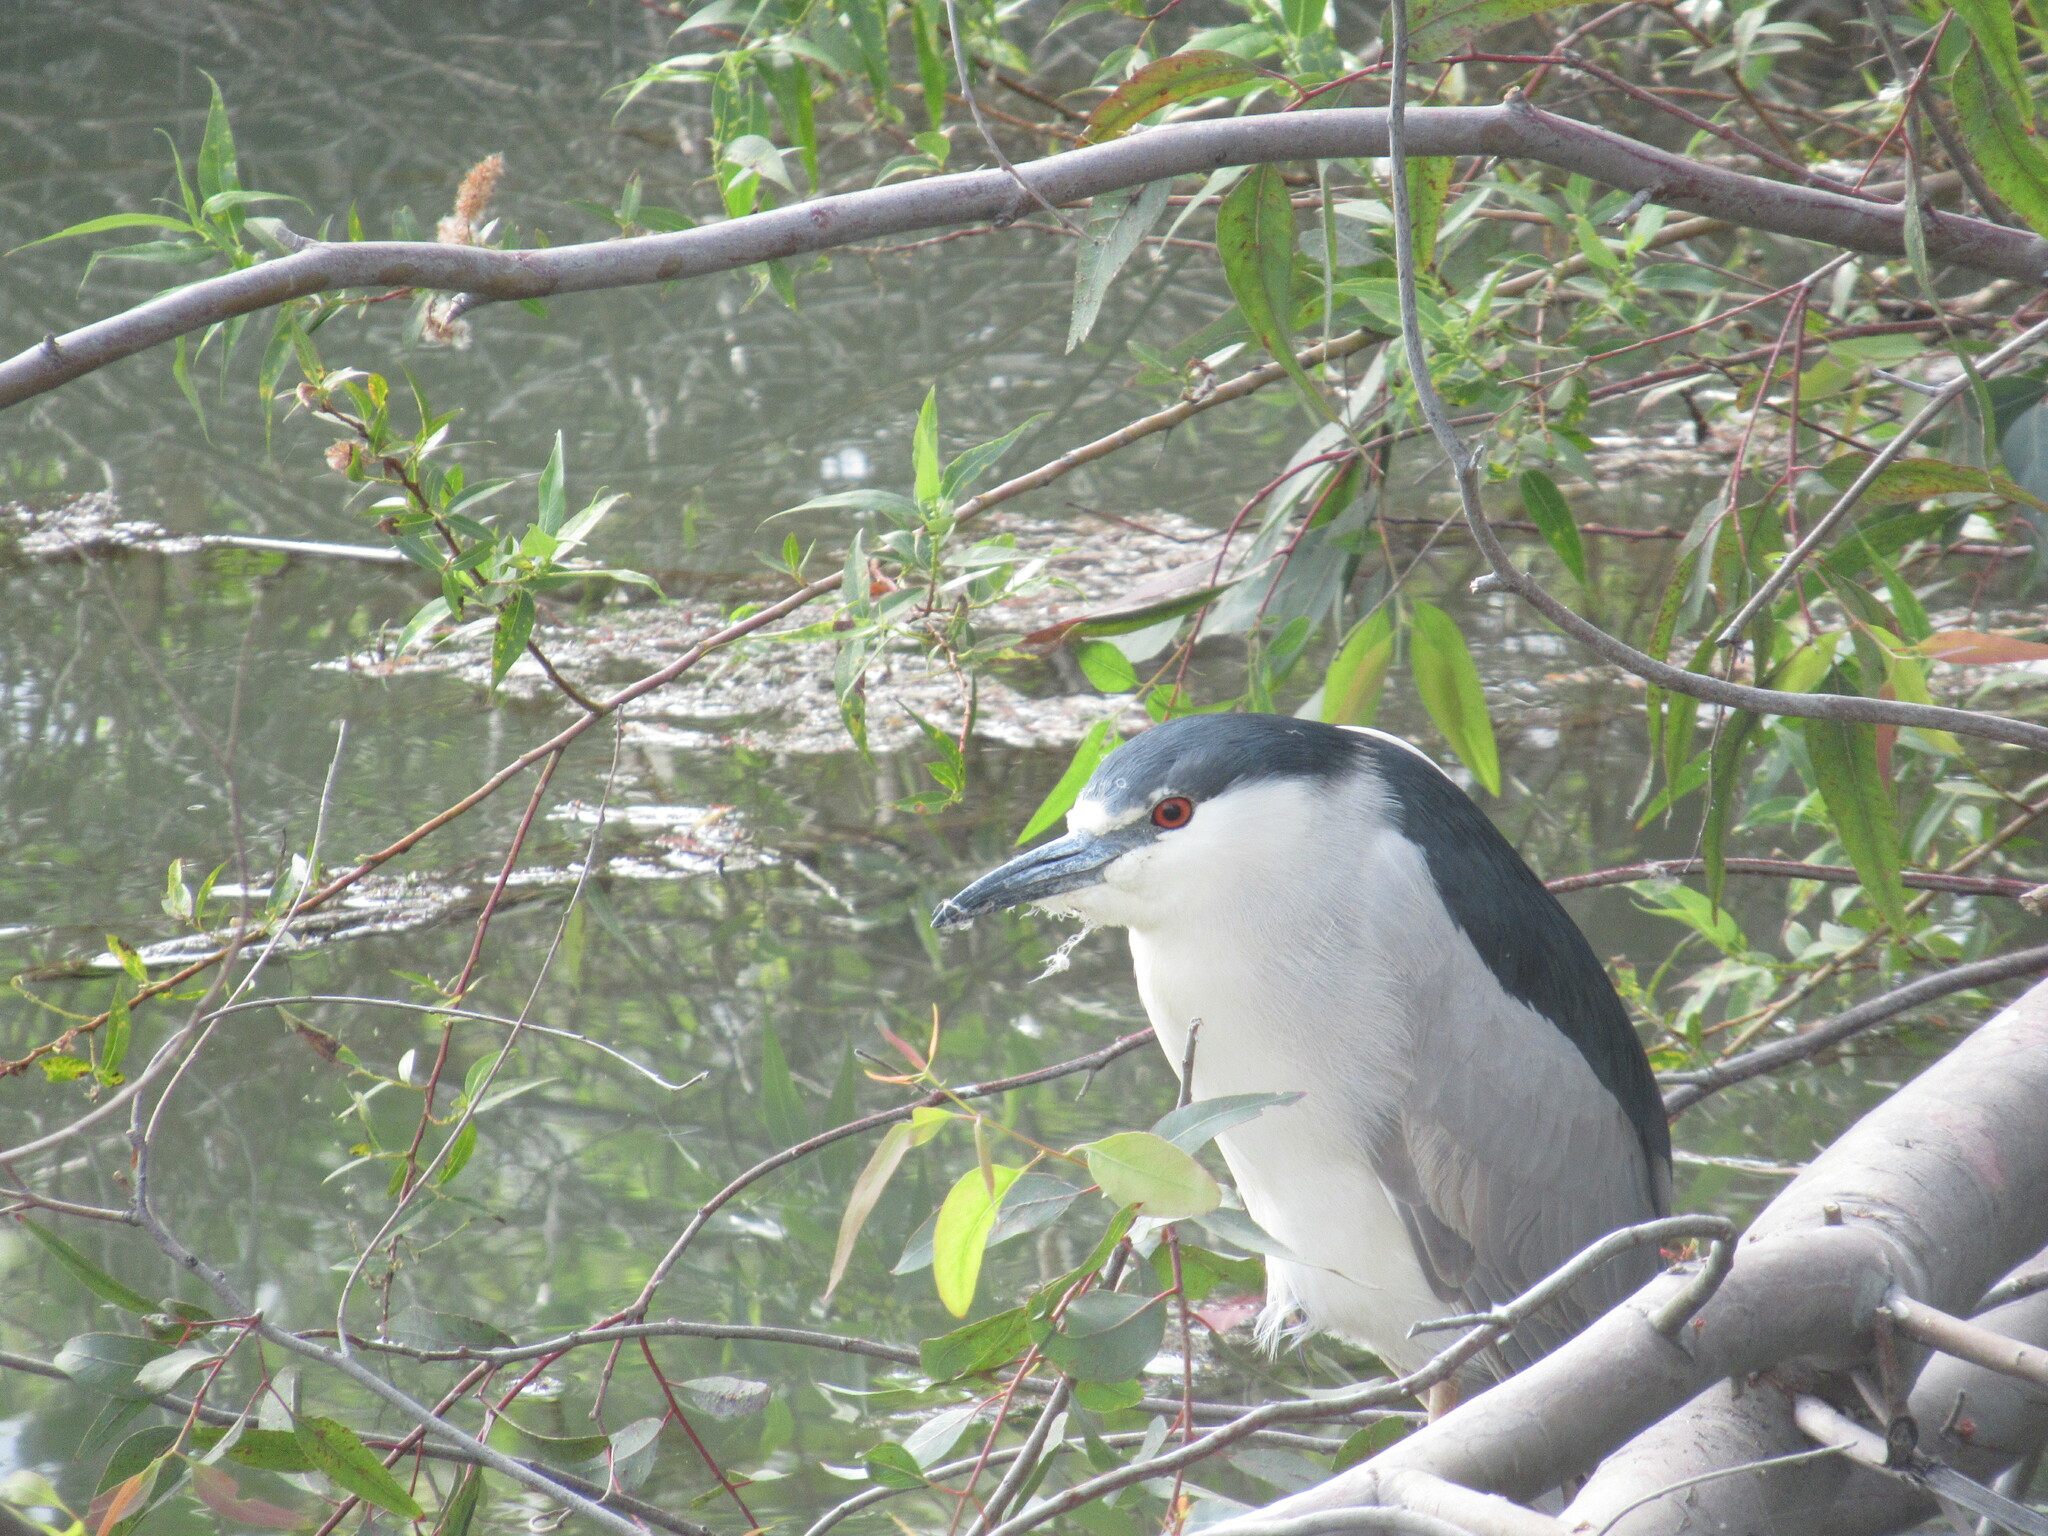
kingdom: Animalia
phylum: Chordata
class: Aves
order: Pelecaniformes
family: Ardeidae
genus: Nycticorax
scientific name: Nycticorax nycticorax
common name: Black-crowned night heron
